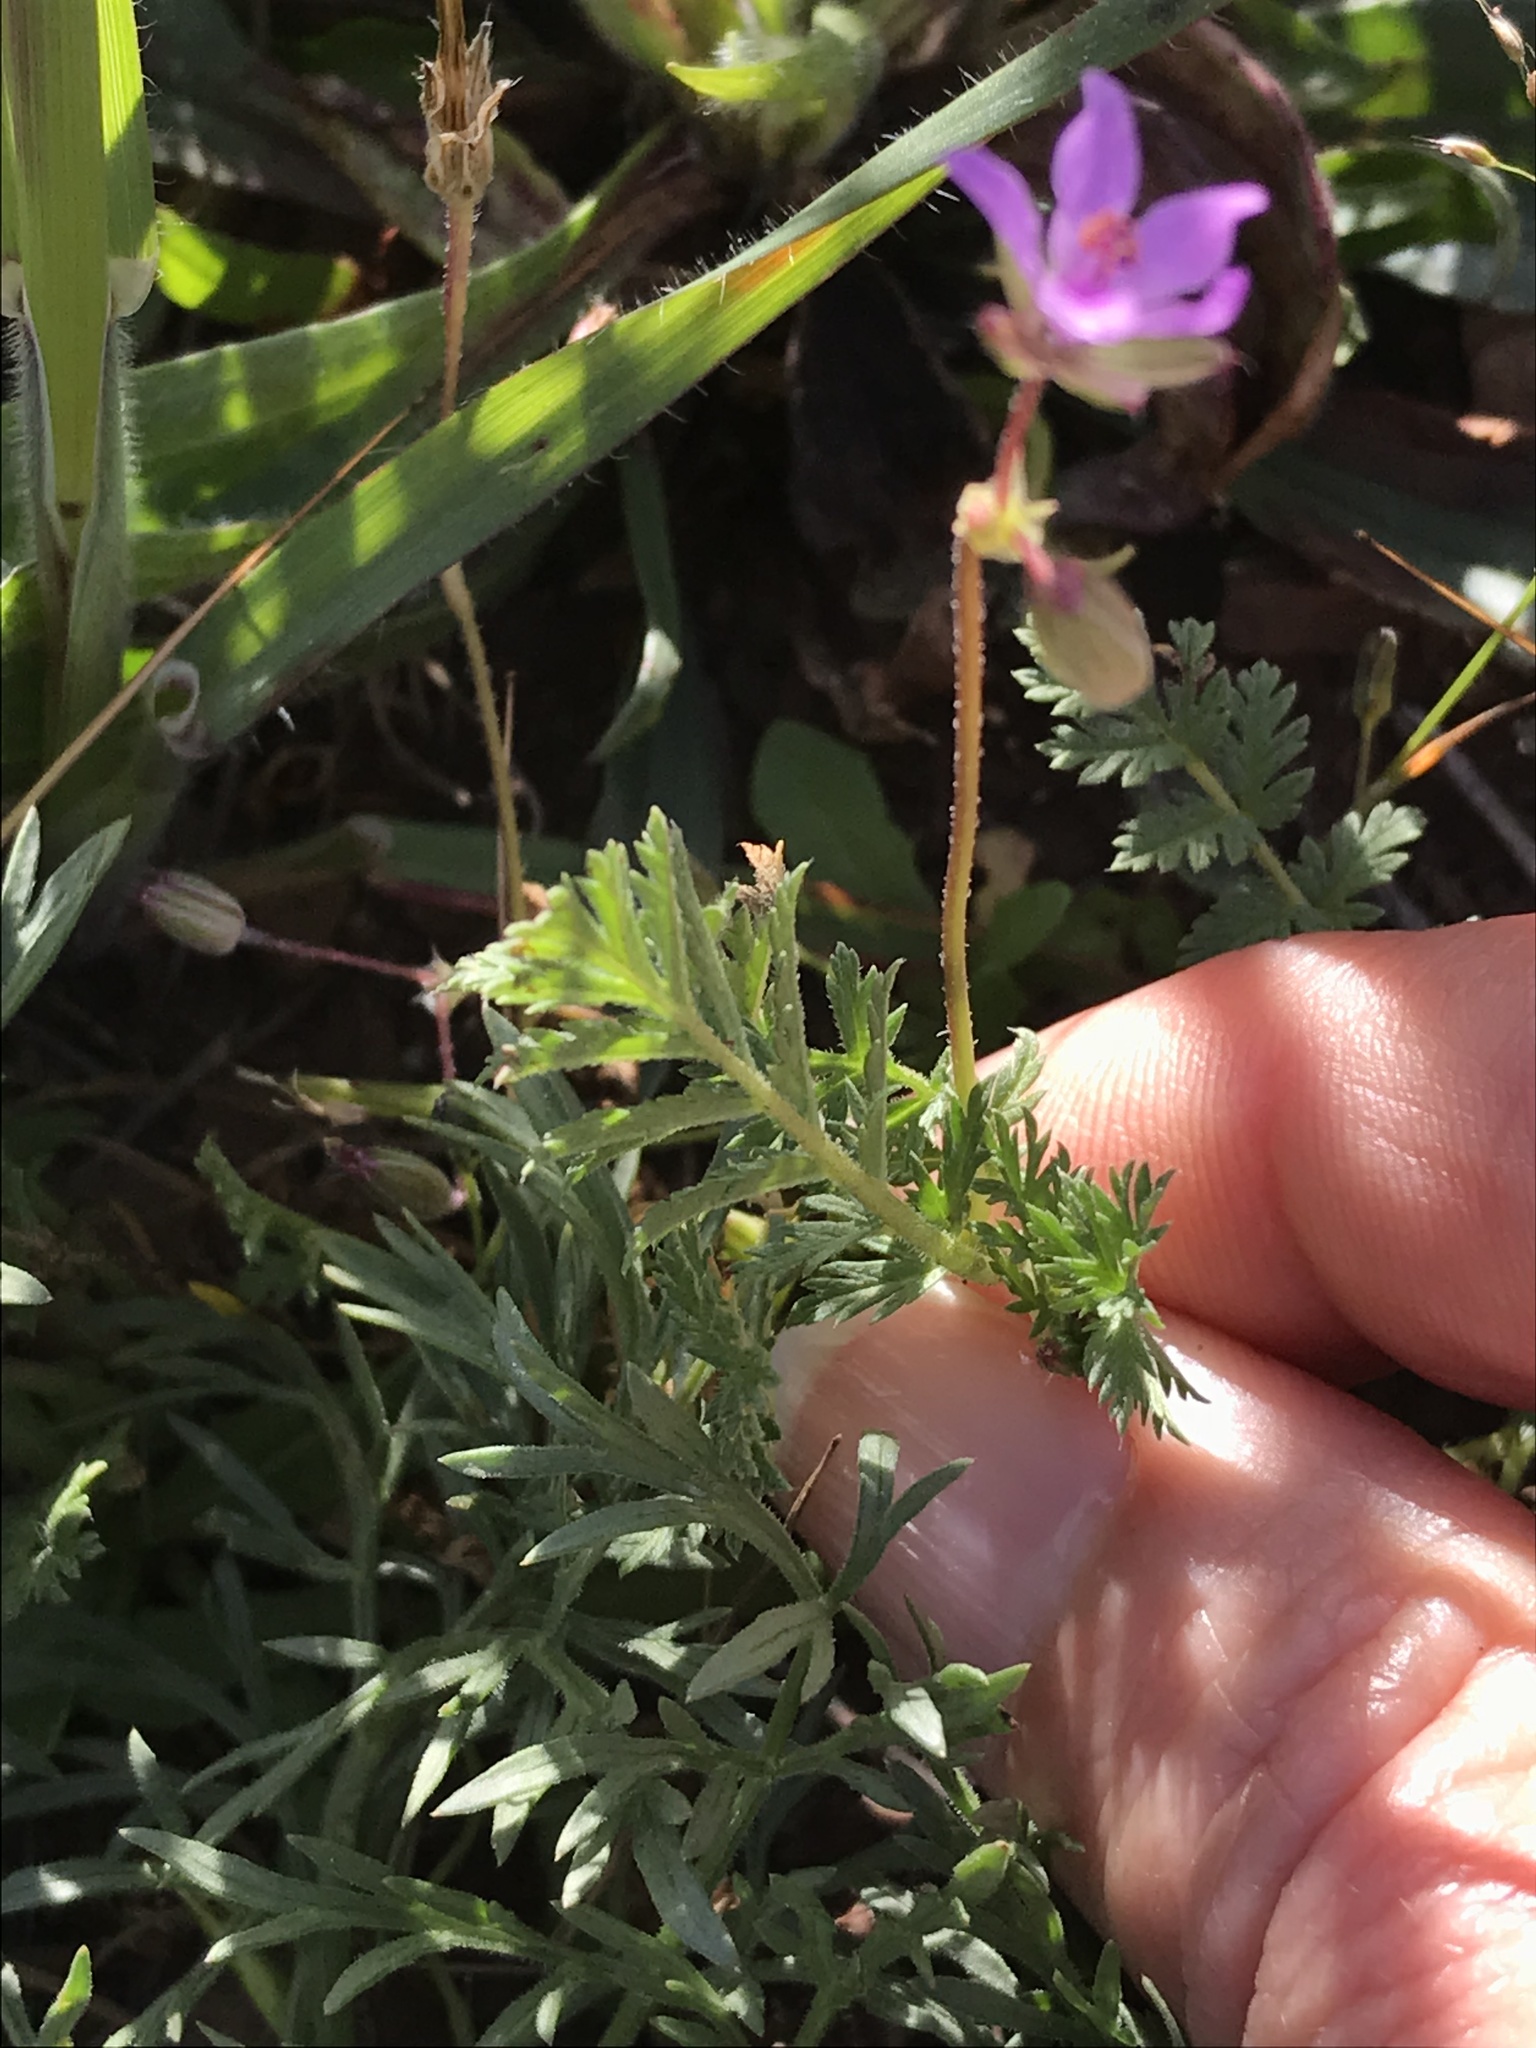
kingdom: Plantae
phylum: Tracheophyta
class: Magnoliopsida
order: Geraniales
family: Geraniaceae
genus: Erodium
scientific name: Erodium cicutarium
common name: Common stork's-bill
